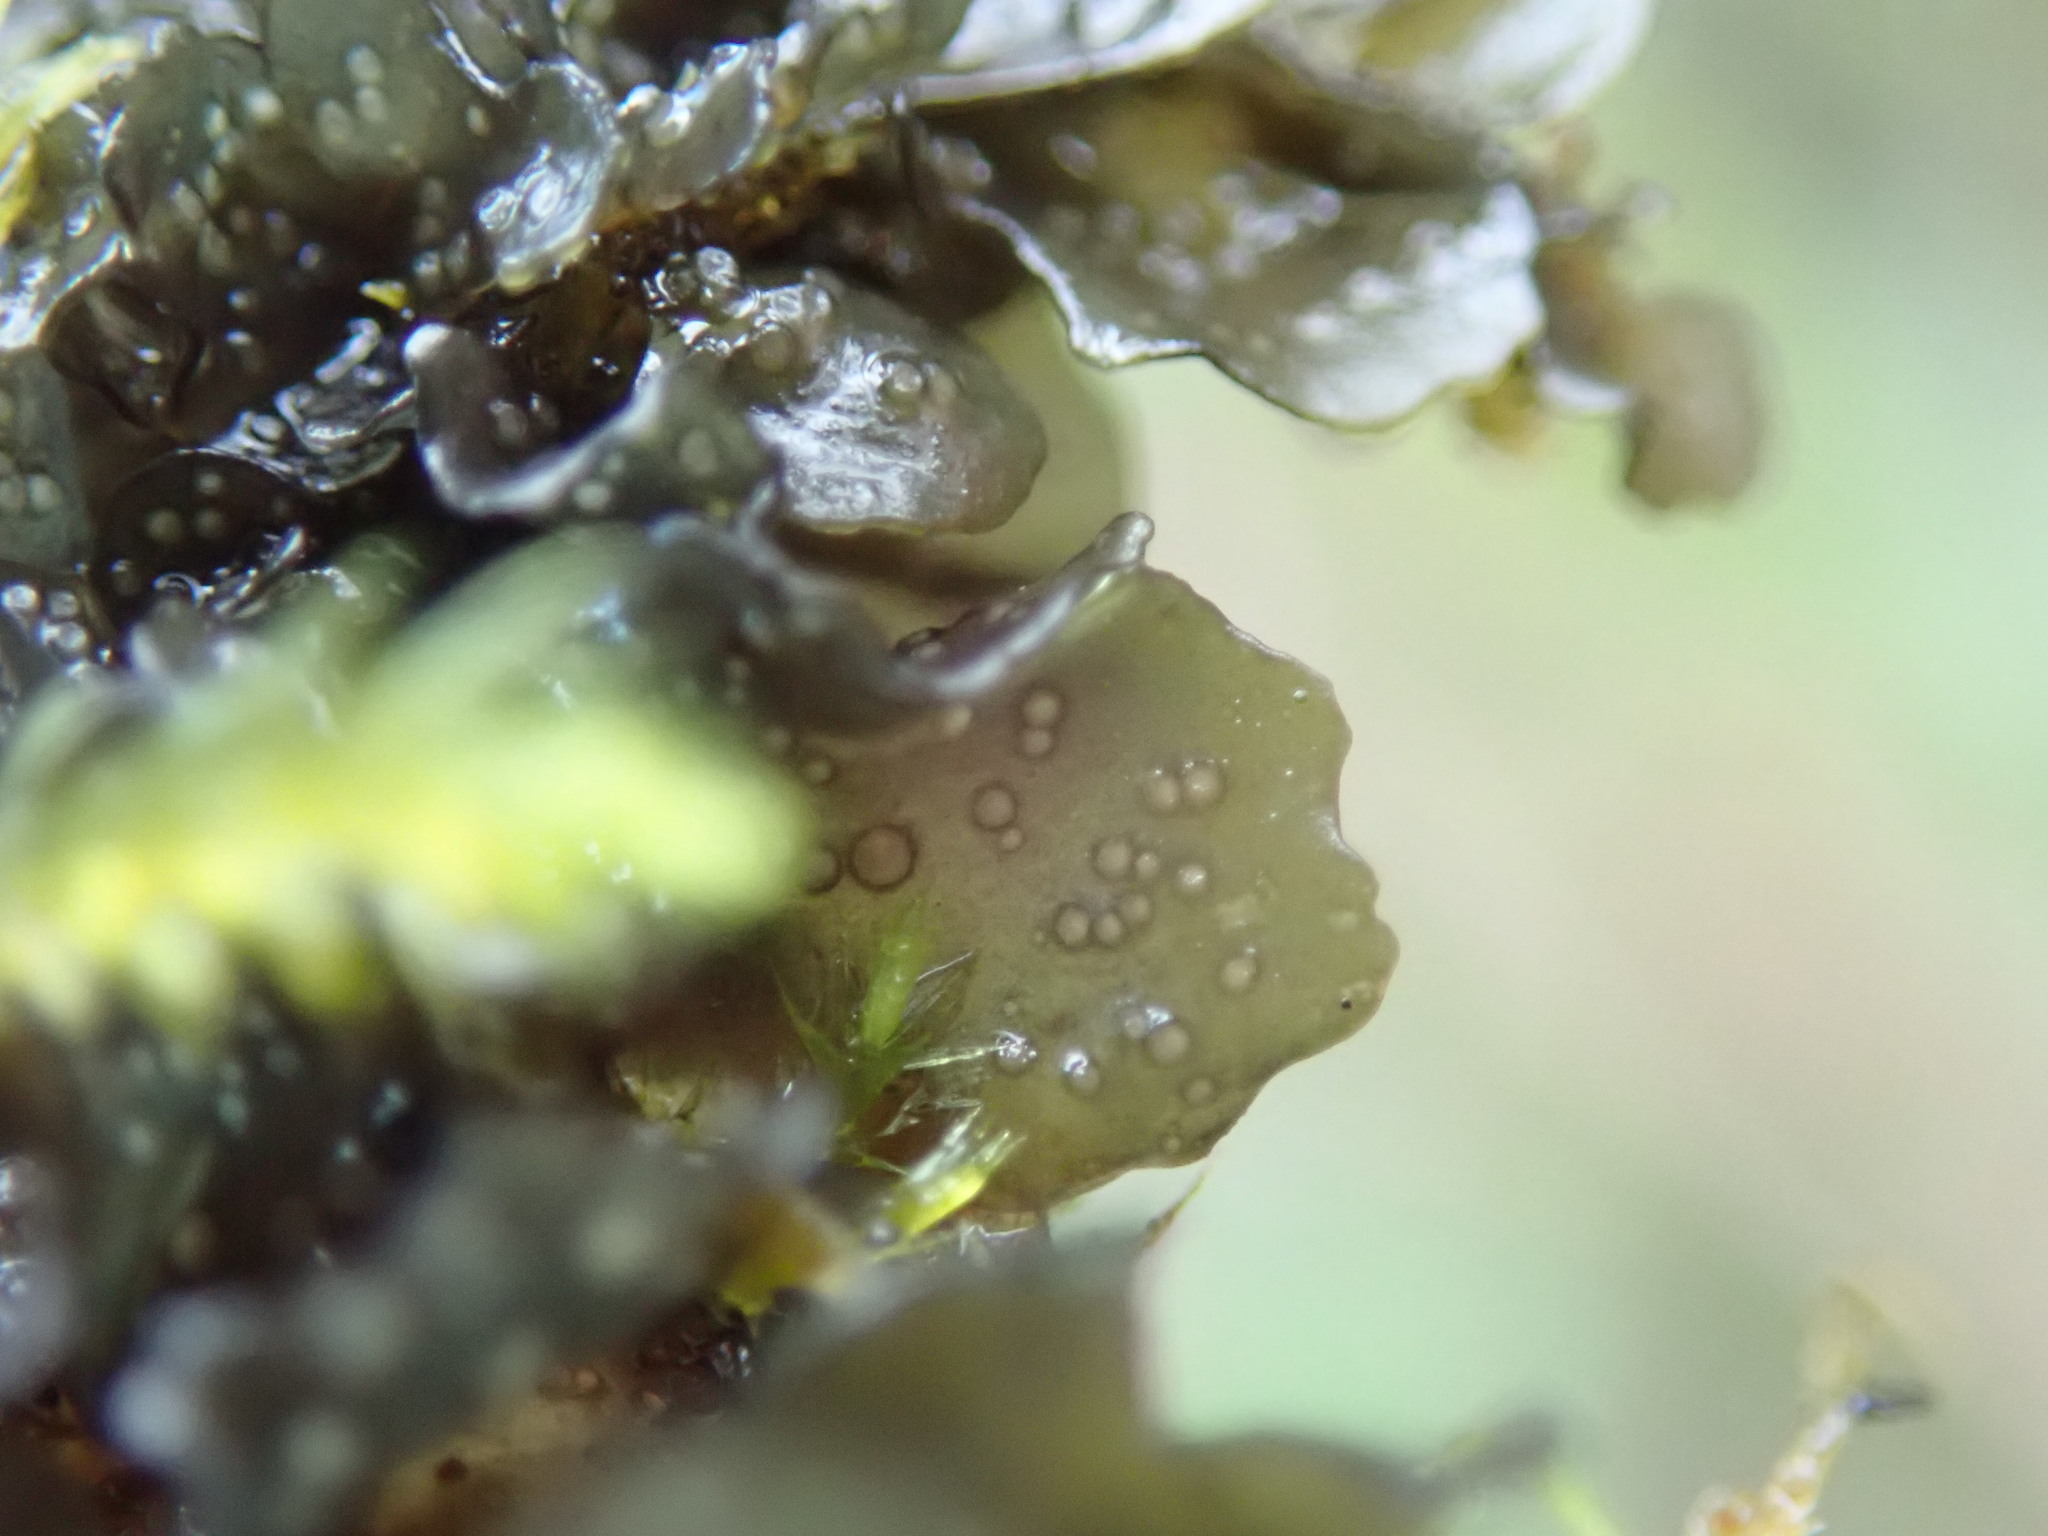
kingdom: Fungi
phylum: Ascomycota
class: Lecanoromycetes
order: Peltigerales
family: Collemataceae
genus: Scytinium
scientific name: Scytinium polycarpum
